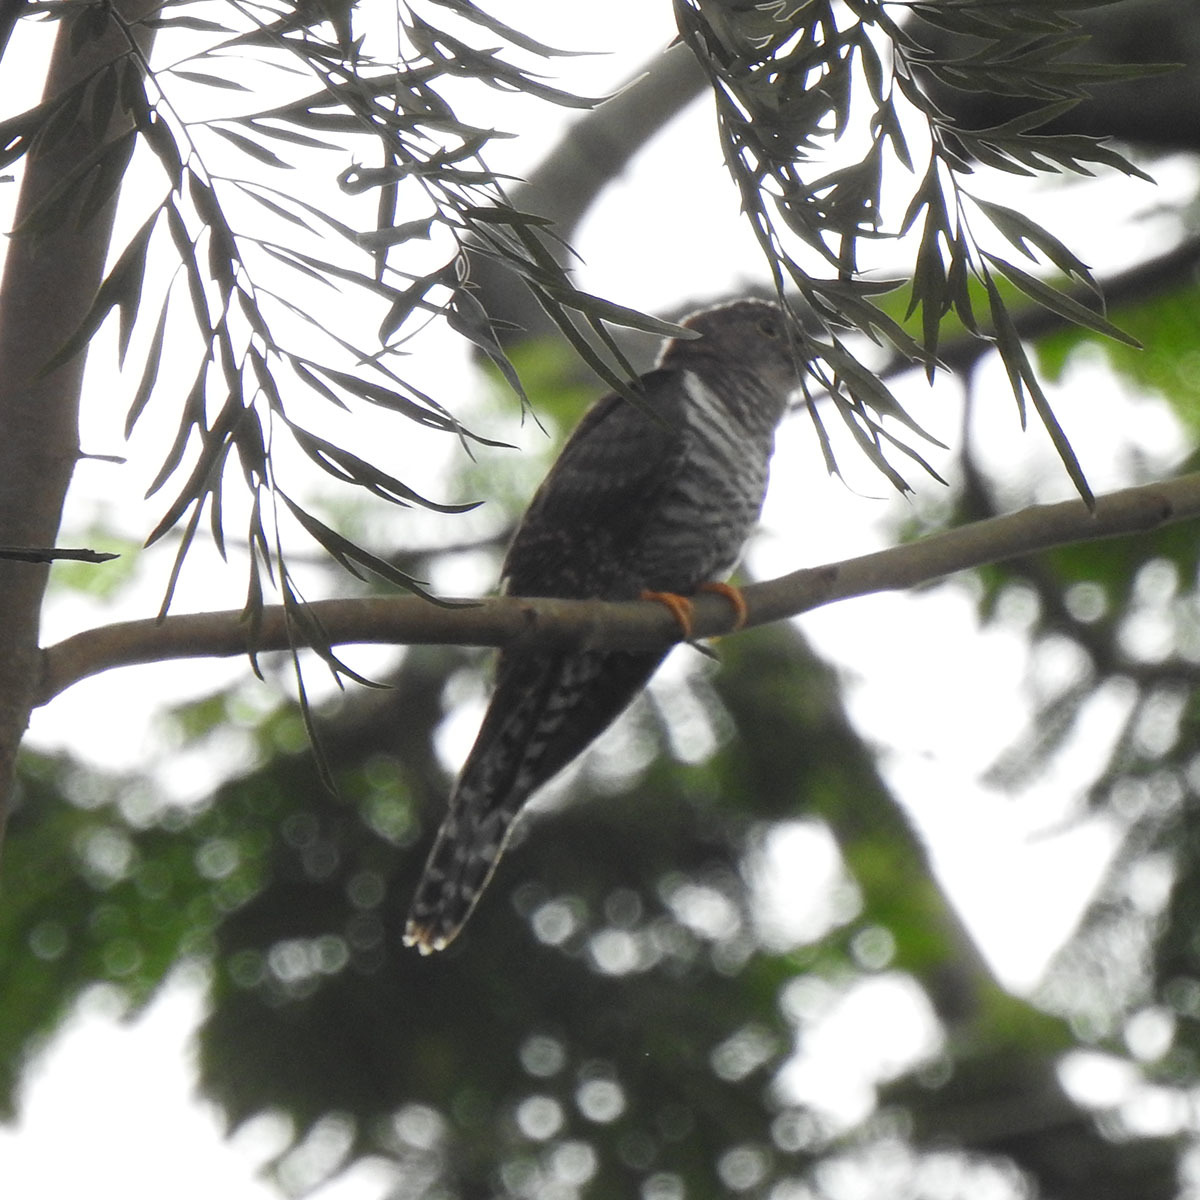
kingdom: Animalia
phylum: Chordata
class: Aves
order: Cuculiformes
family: Cuculidae
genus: Cuculus
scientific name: Cuculus poliocephalus
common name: Lesser cuckoo
